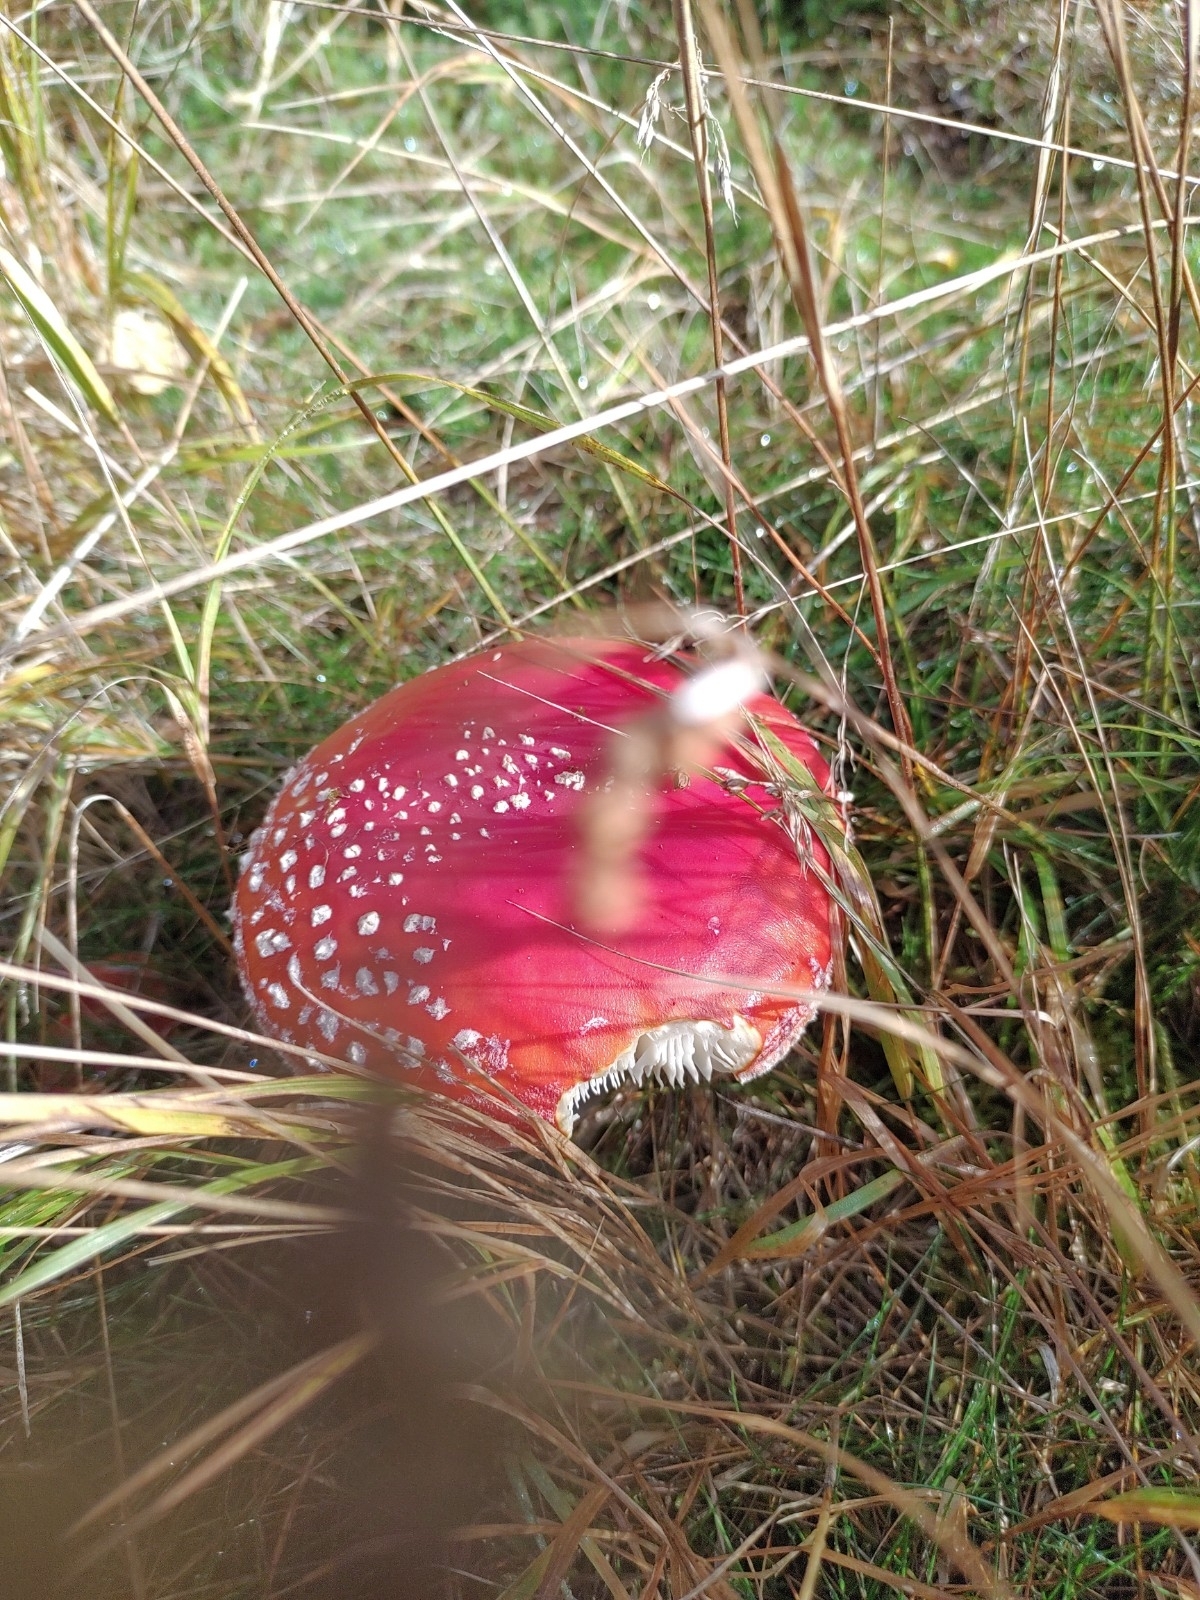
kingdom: Fungi
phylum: Basidiomycota
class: Agaricomycetes
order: Agaricales
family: Amanitaceae
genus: Amanita
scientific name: Amanita muscaria
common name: Fly agaric
